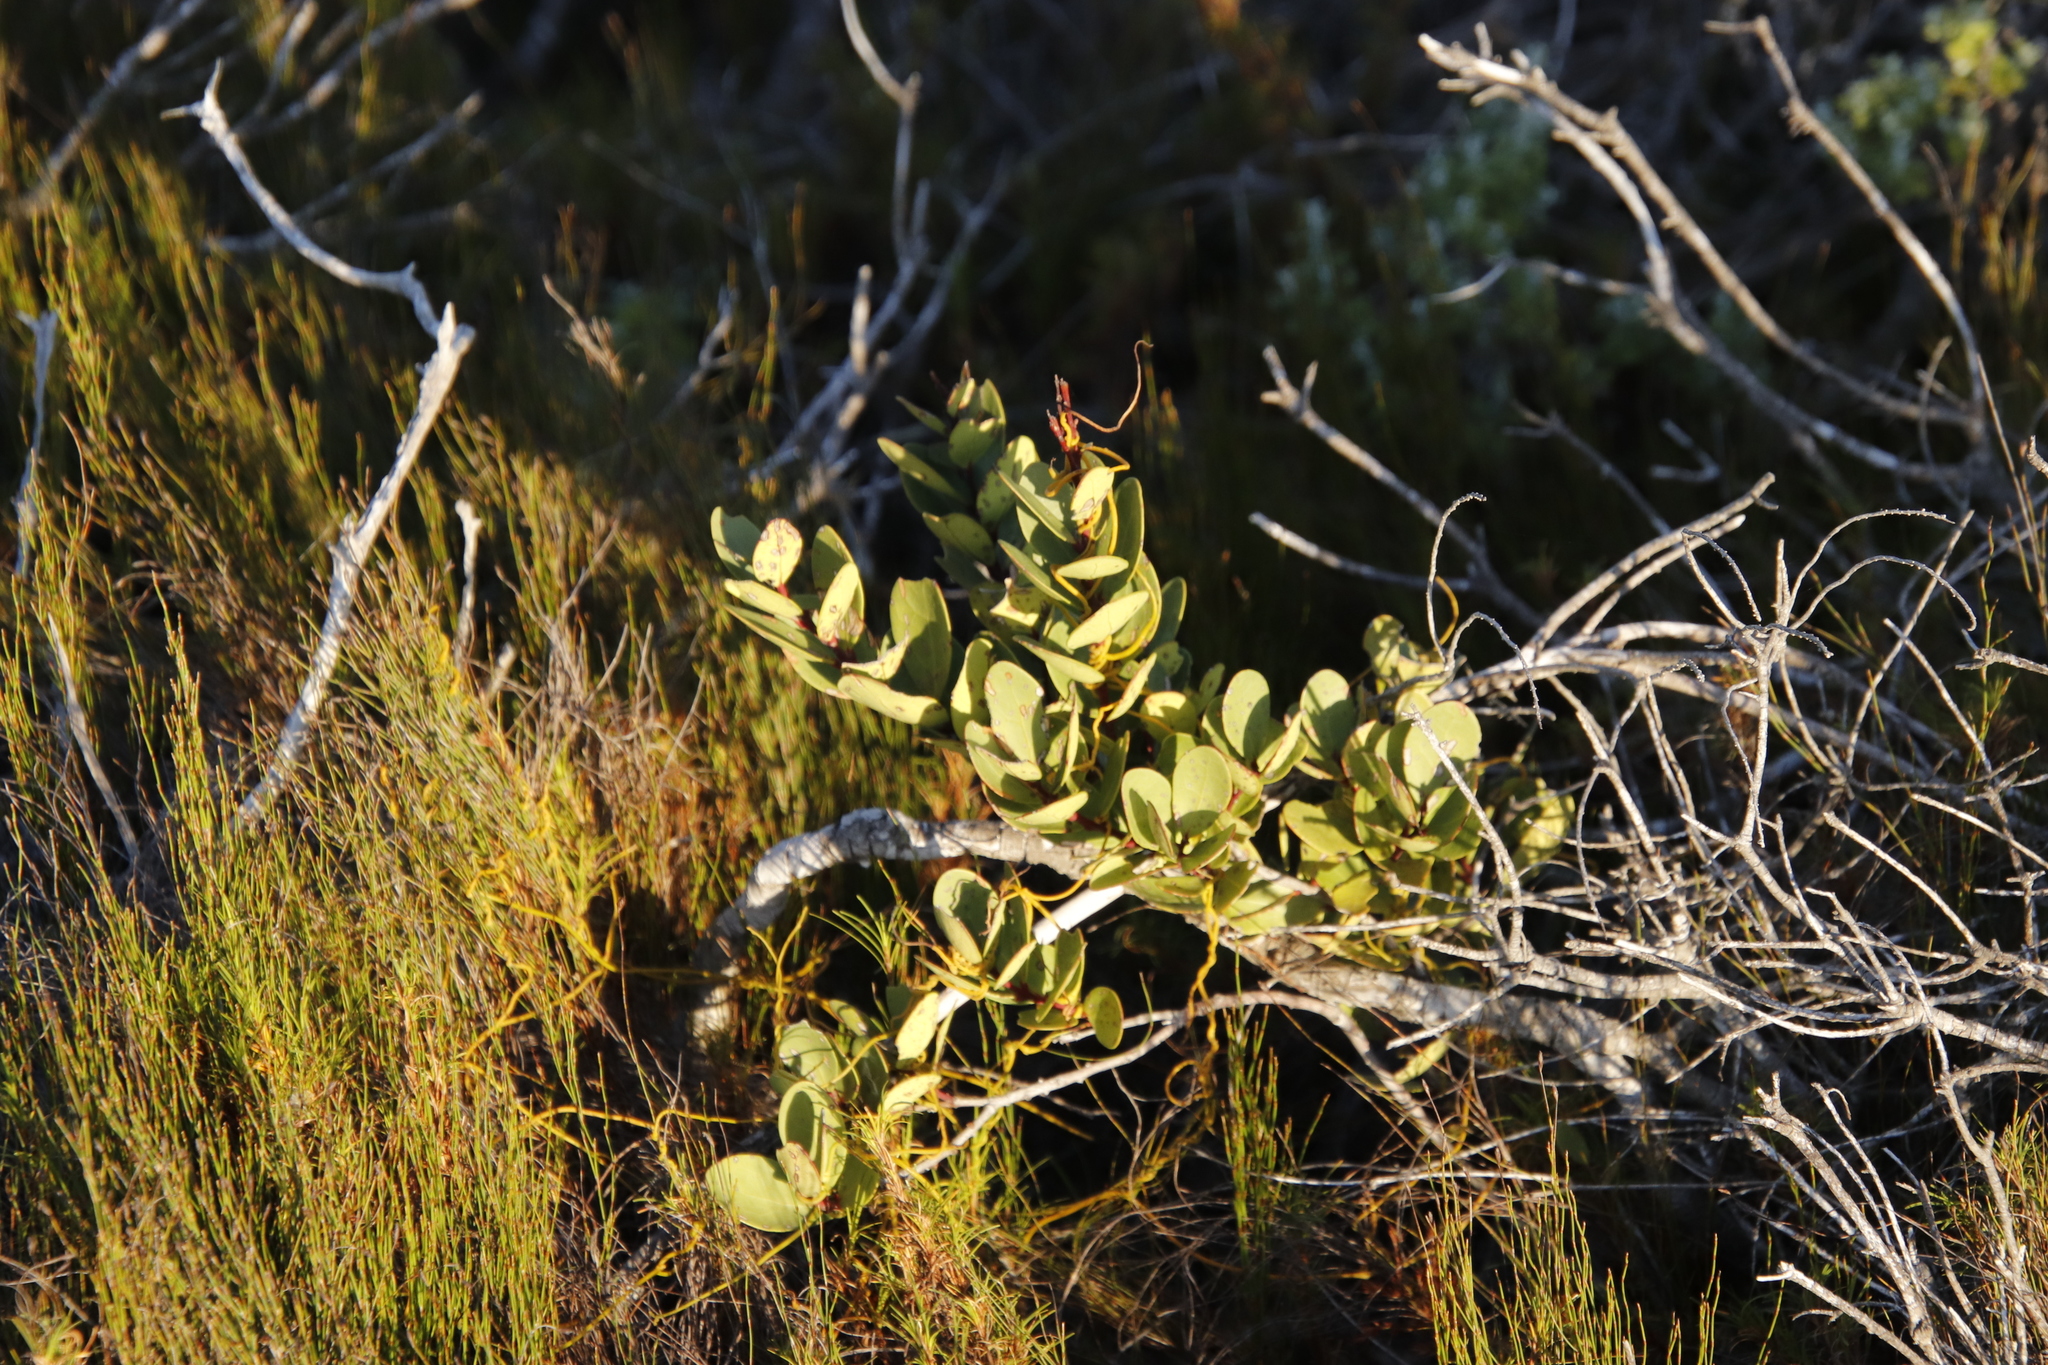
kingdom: Plantae
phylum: Tracheophyta
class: Magnoliopsida
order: Santalales
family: Santalaceae
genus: Osyris
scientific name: Osyris compressa
